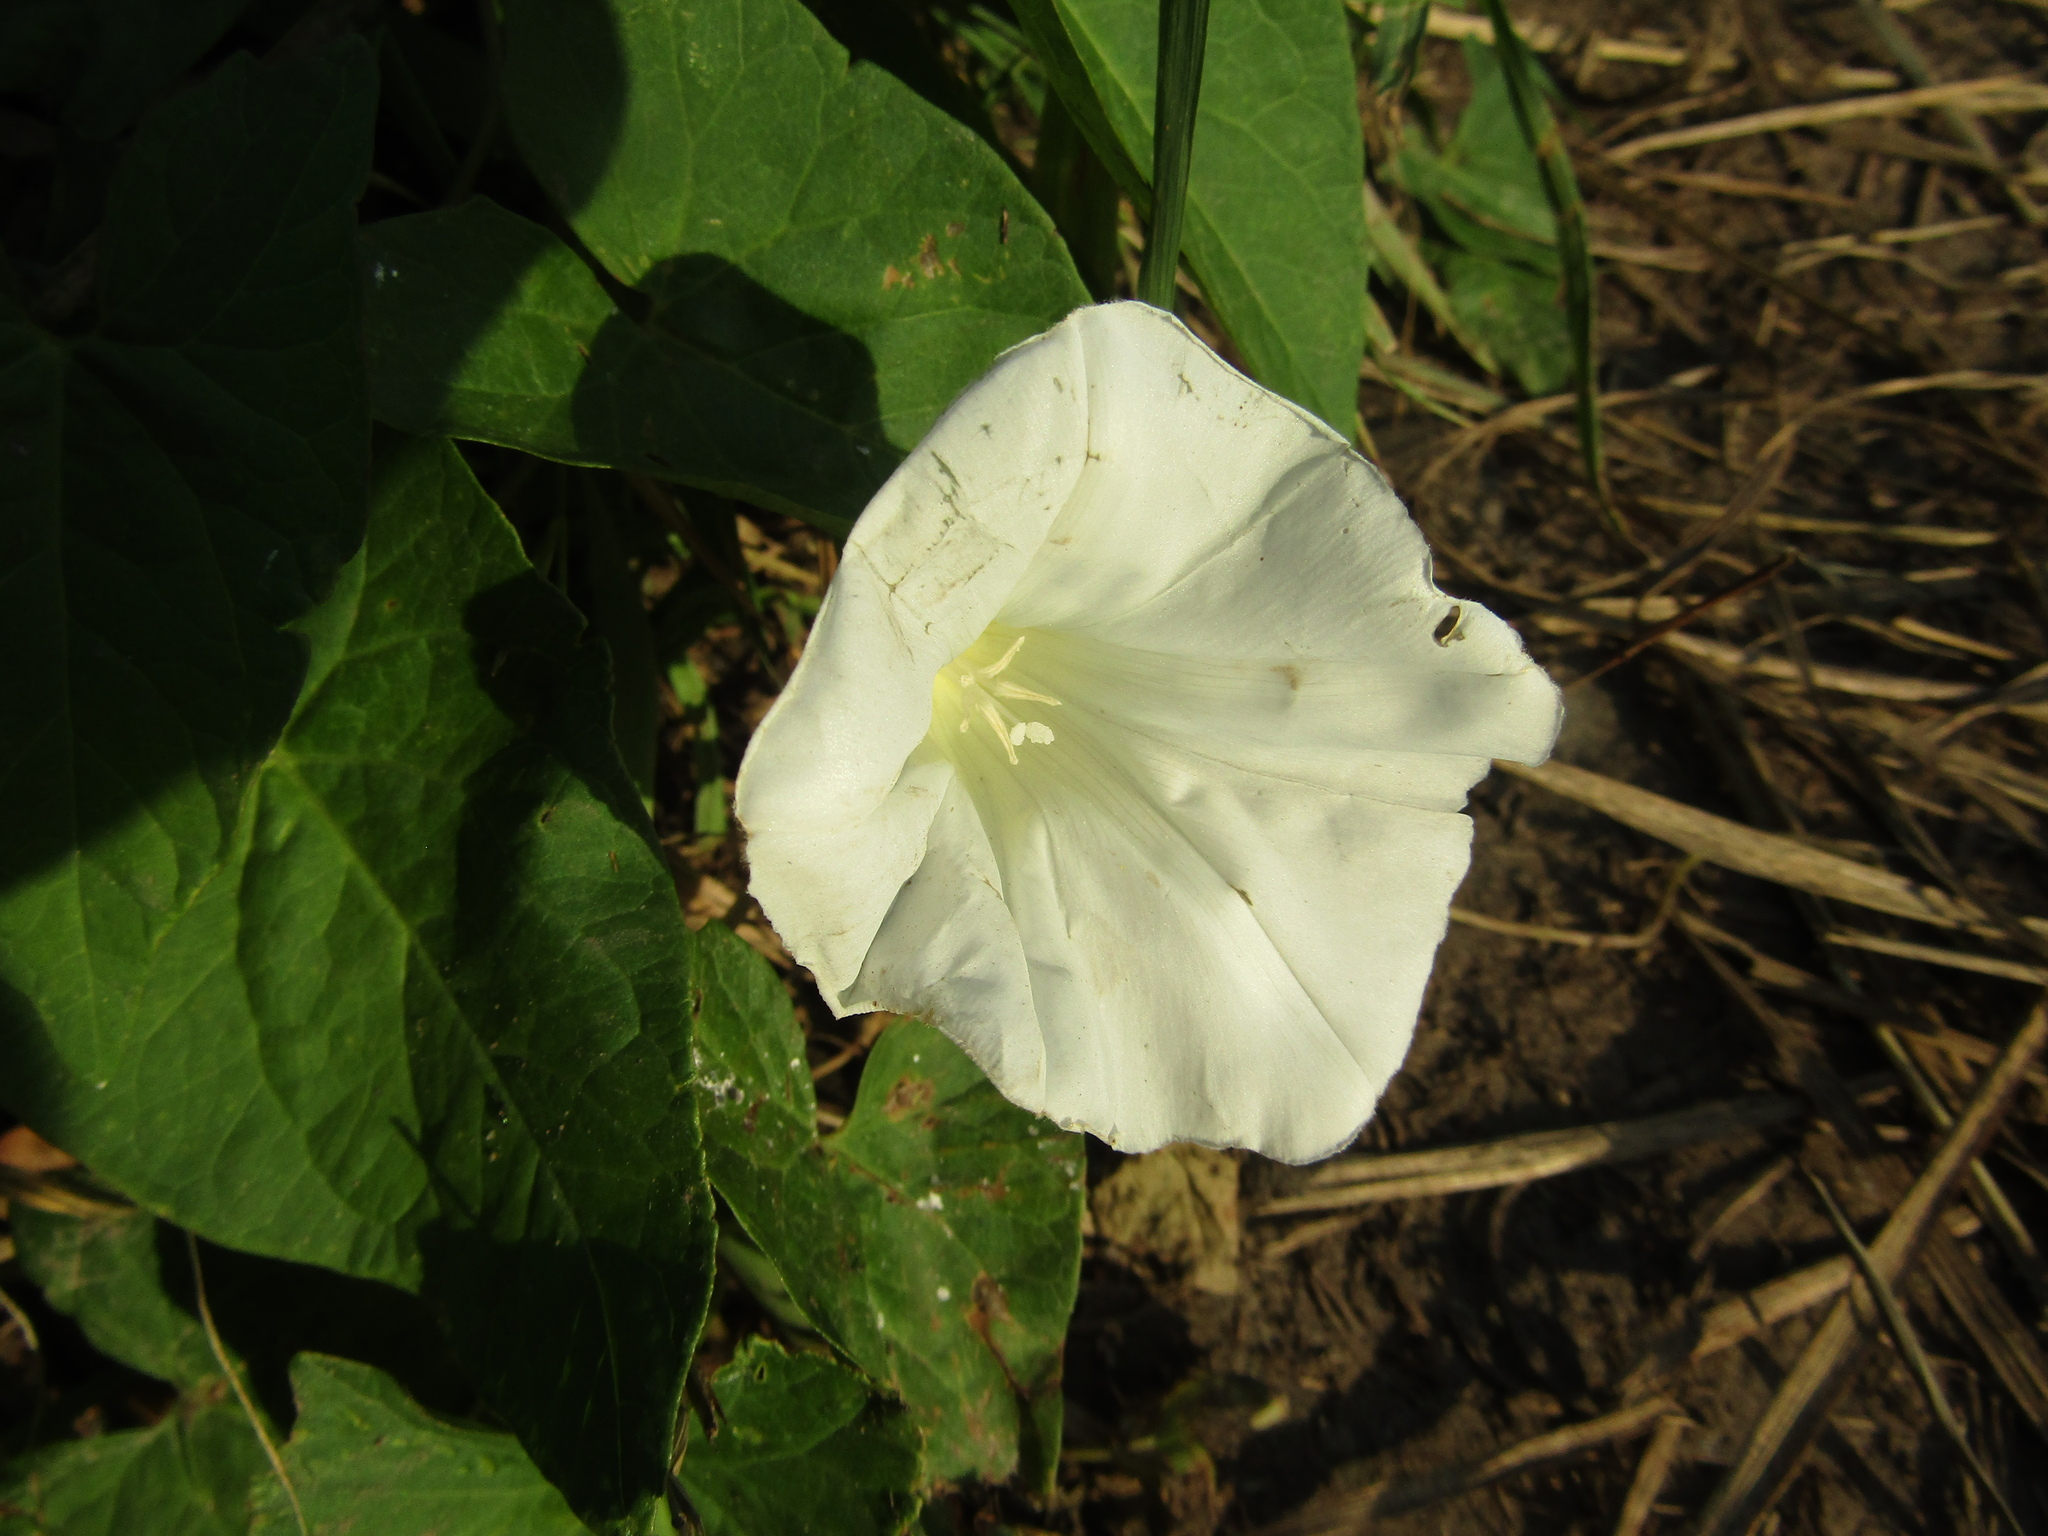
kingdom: Plantae
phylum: Tracheophyta
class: Magnoliopsida
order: Solanales
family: Convolvulaceae
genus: Calystegia
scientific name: Calystegia sepium
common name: Hedge bindweed
